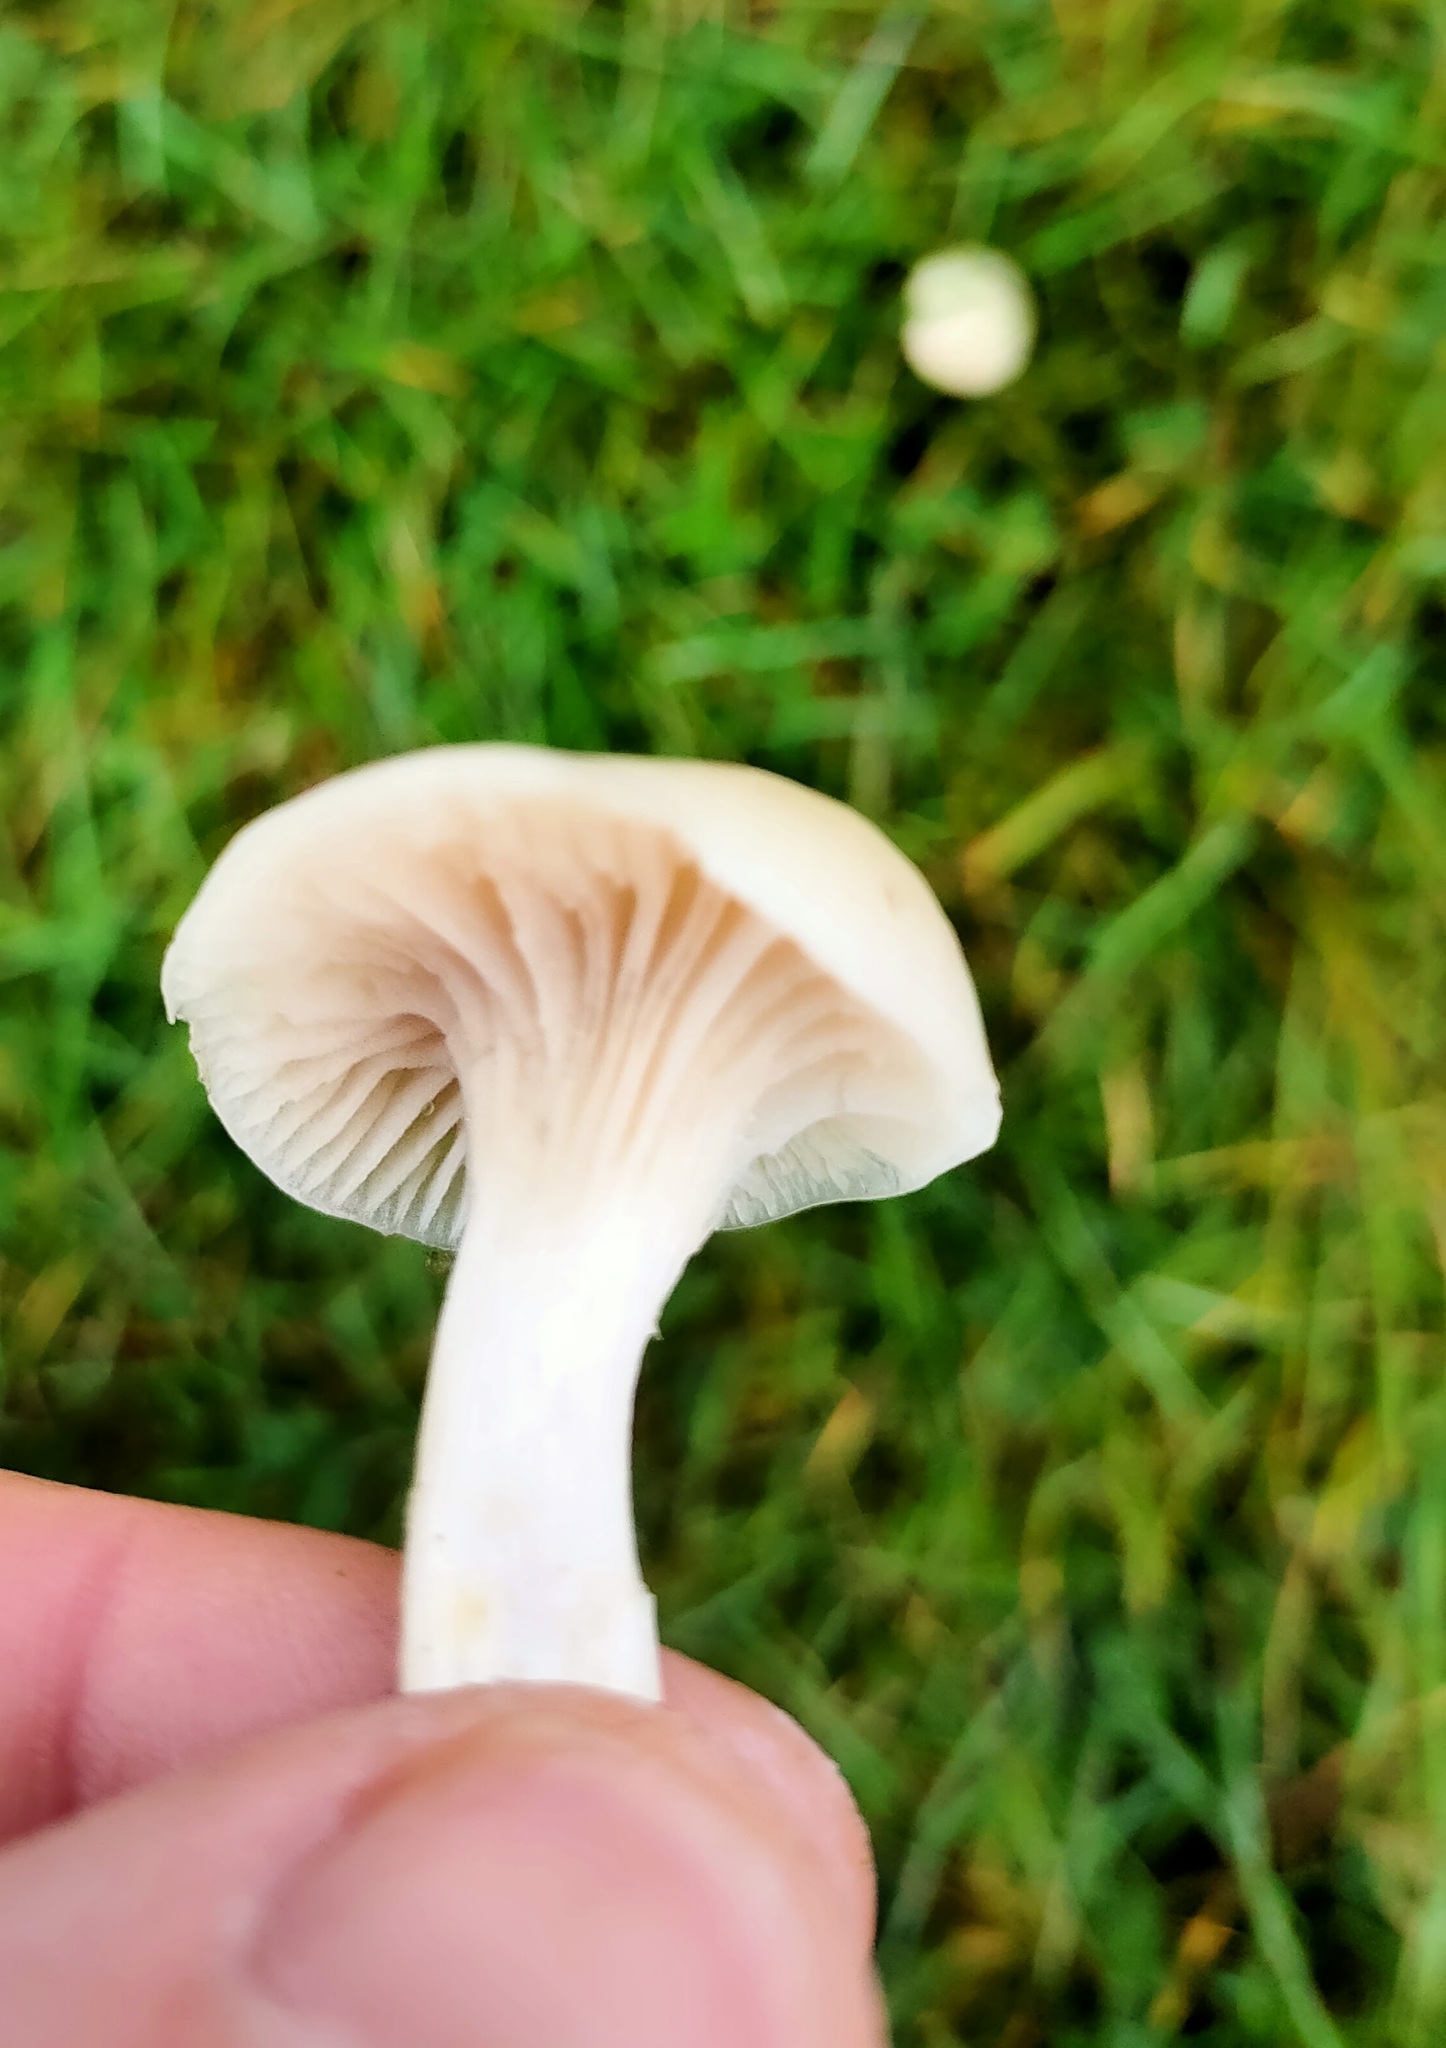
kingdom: Fungi
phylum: Basidiomycota
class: Agaricomycetes
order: Agaricales
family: Hygrophoraceae
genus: Cuphophyllus
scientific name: Cuphophyllus virgineus
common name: Snowy waxcap
